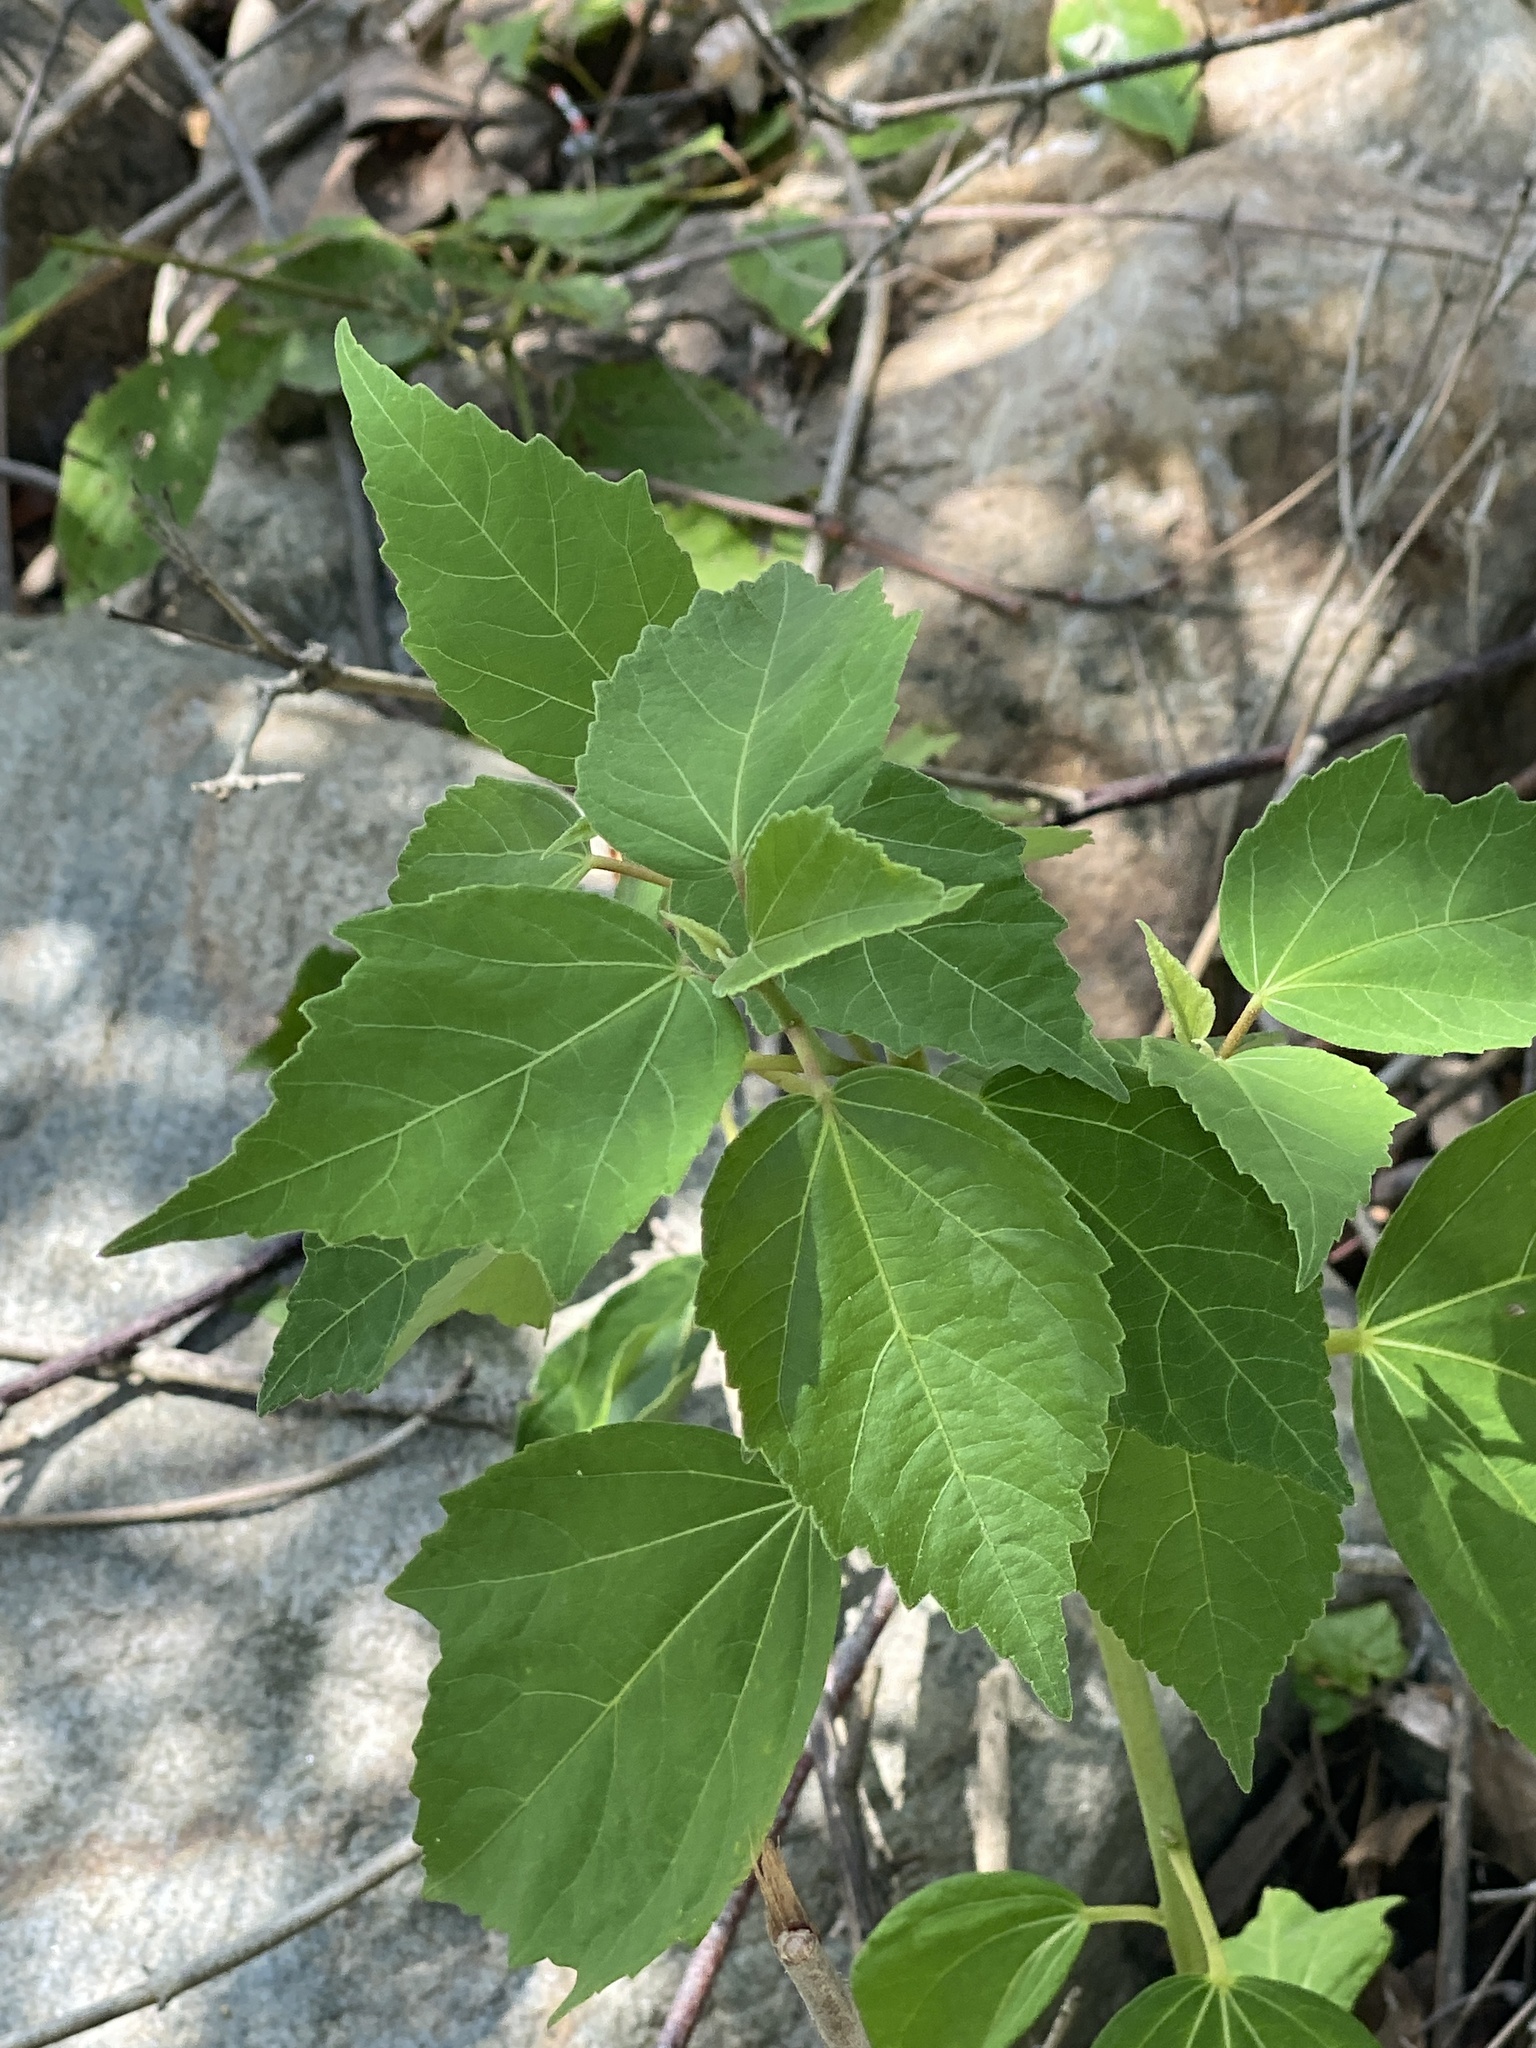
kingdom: Plantae
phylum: Tracheophyta
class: Magnoliopsida
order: Malvales
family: Malvaceae
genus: Hibiscus
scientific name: Hibiscus moscheutos
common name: Common rose-mallow
